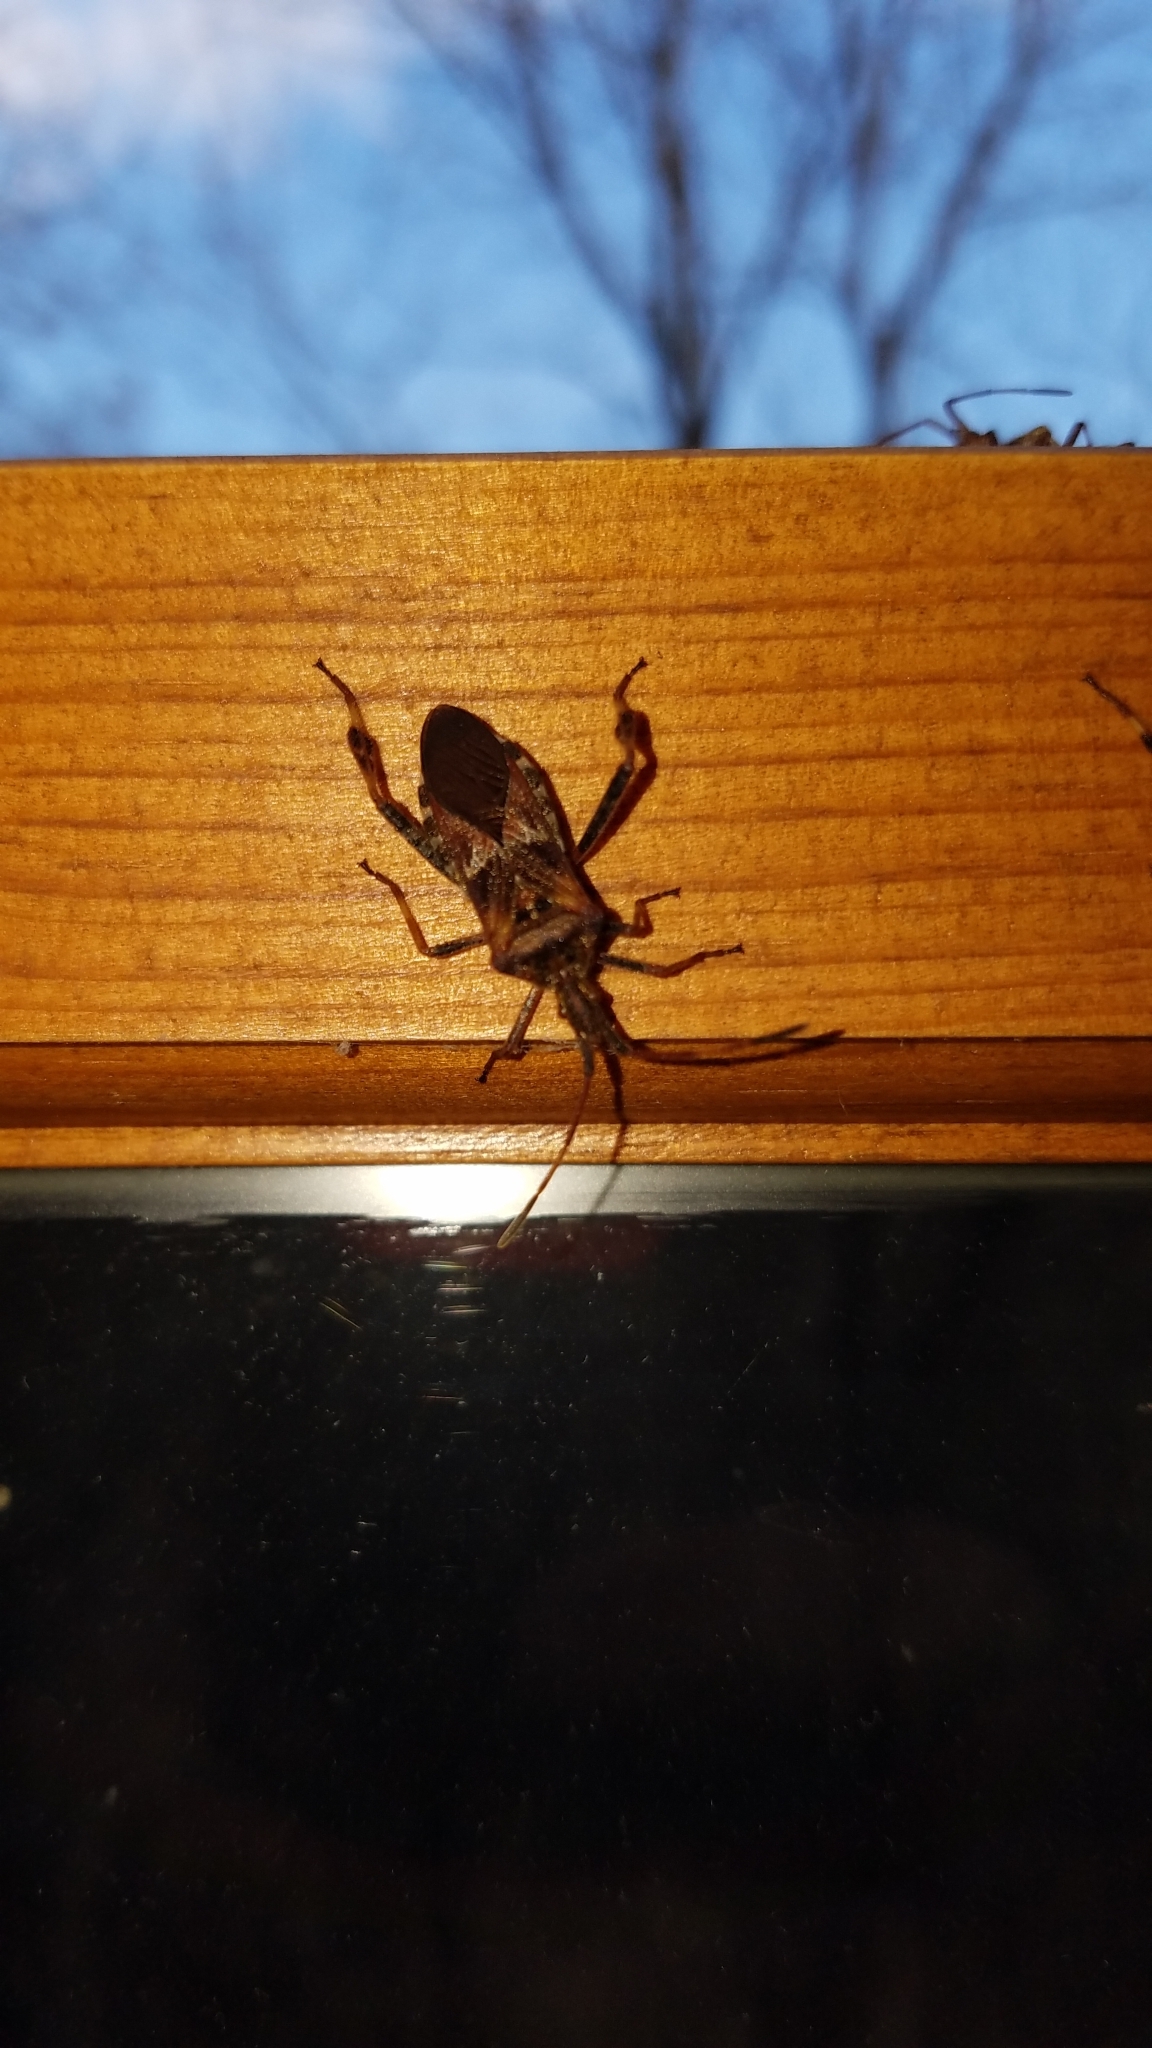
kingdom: Animalia
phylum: Arthropoda
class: Insecta
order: Hemiptera
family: Coreidae
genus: Leptoglossus
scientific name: Leptoglossus occidentalis
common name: Western conifer-seed bug
